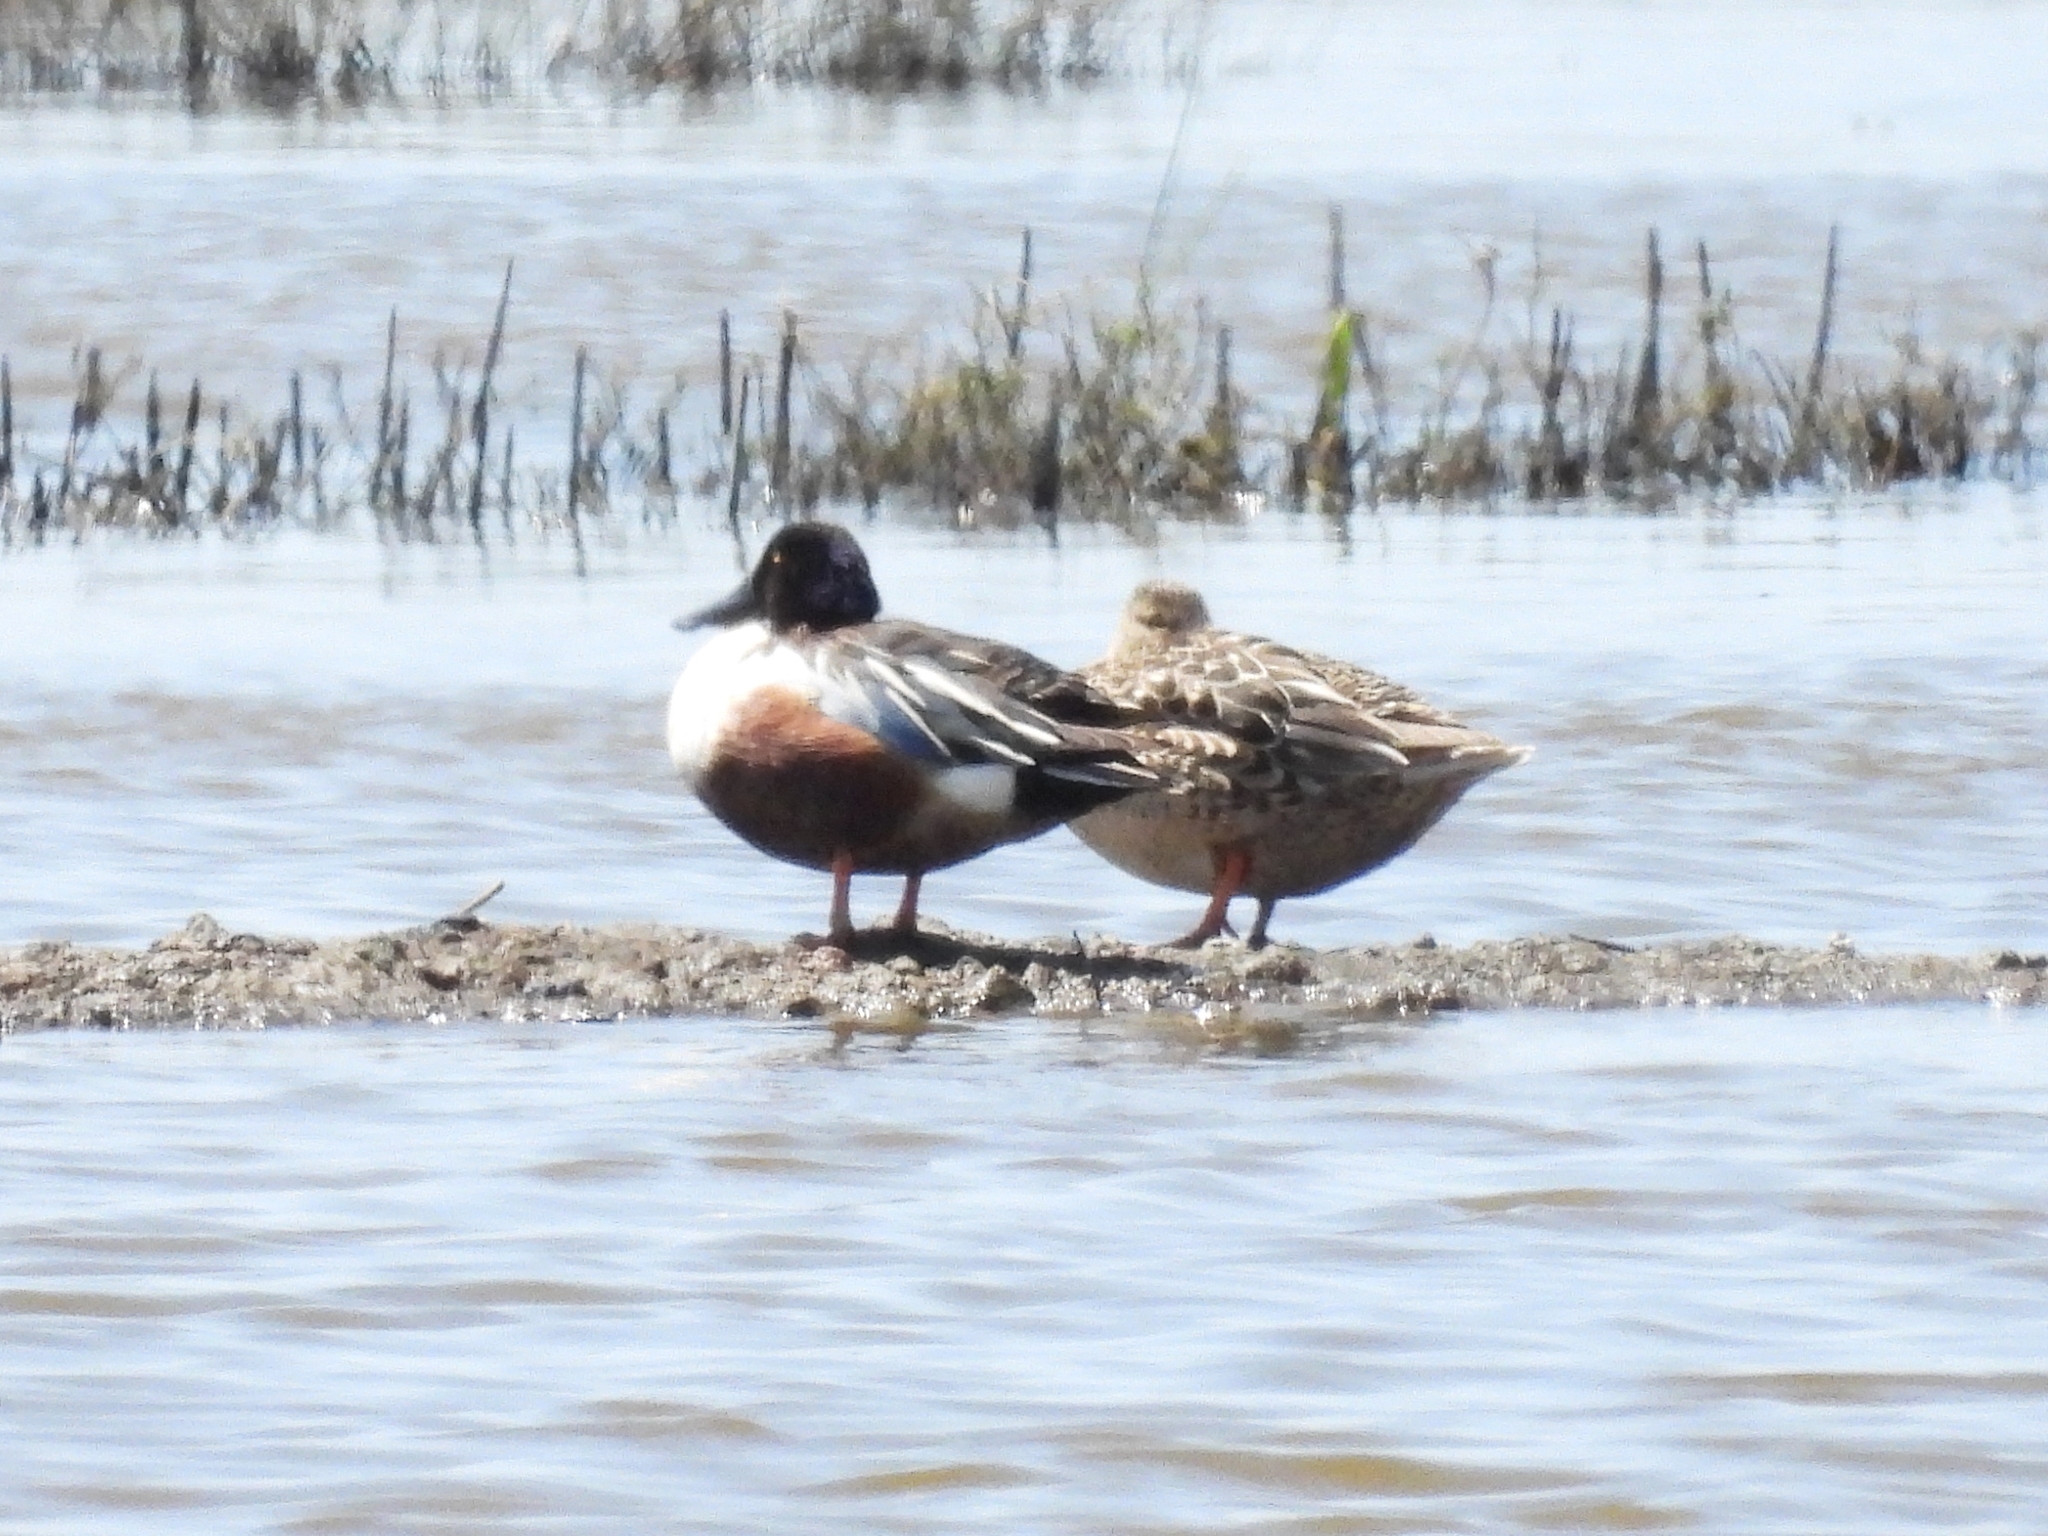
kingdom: Animalia
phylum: Chordata
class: Aves
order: Anseriformes
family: Anatidae
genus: Spatula
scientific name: Spatula clypeata
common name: Northern shoveler
